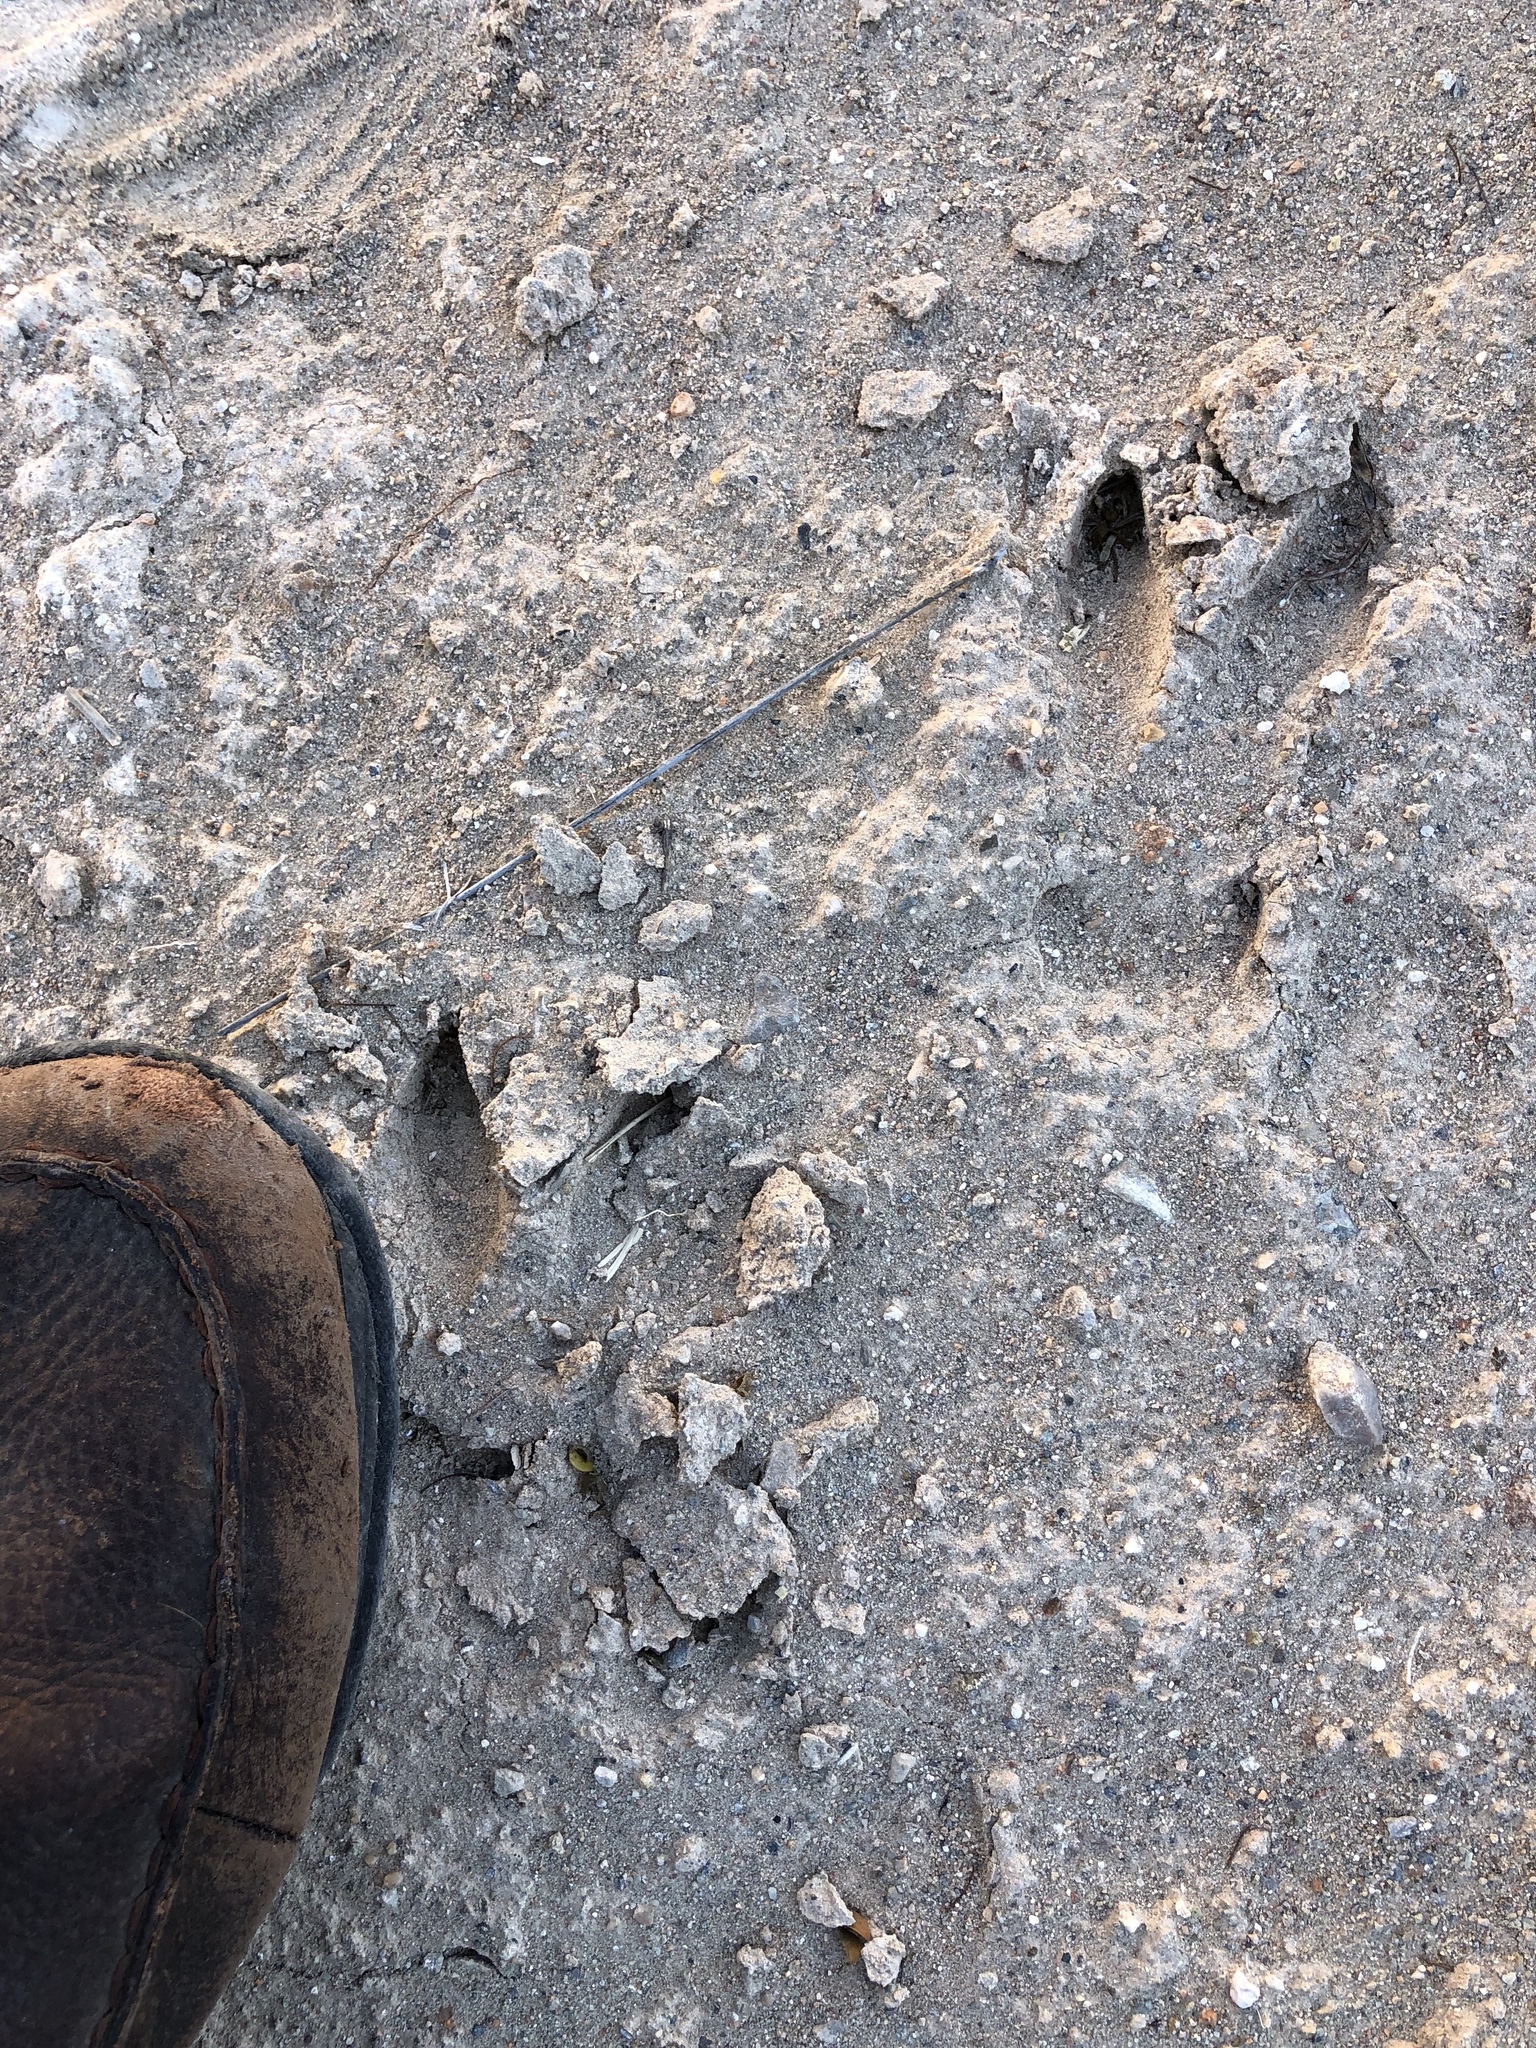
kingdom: Animalia
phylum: Chordata
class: Mammalia
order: Artiodactyla
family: Tayassuidae
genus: Pecari
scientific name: Pecari tajacu
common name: Collared peccary
